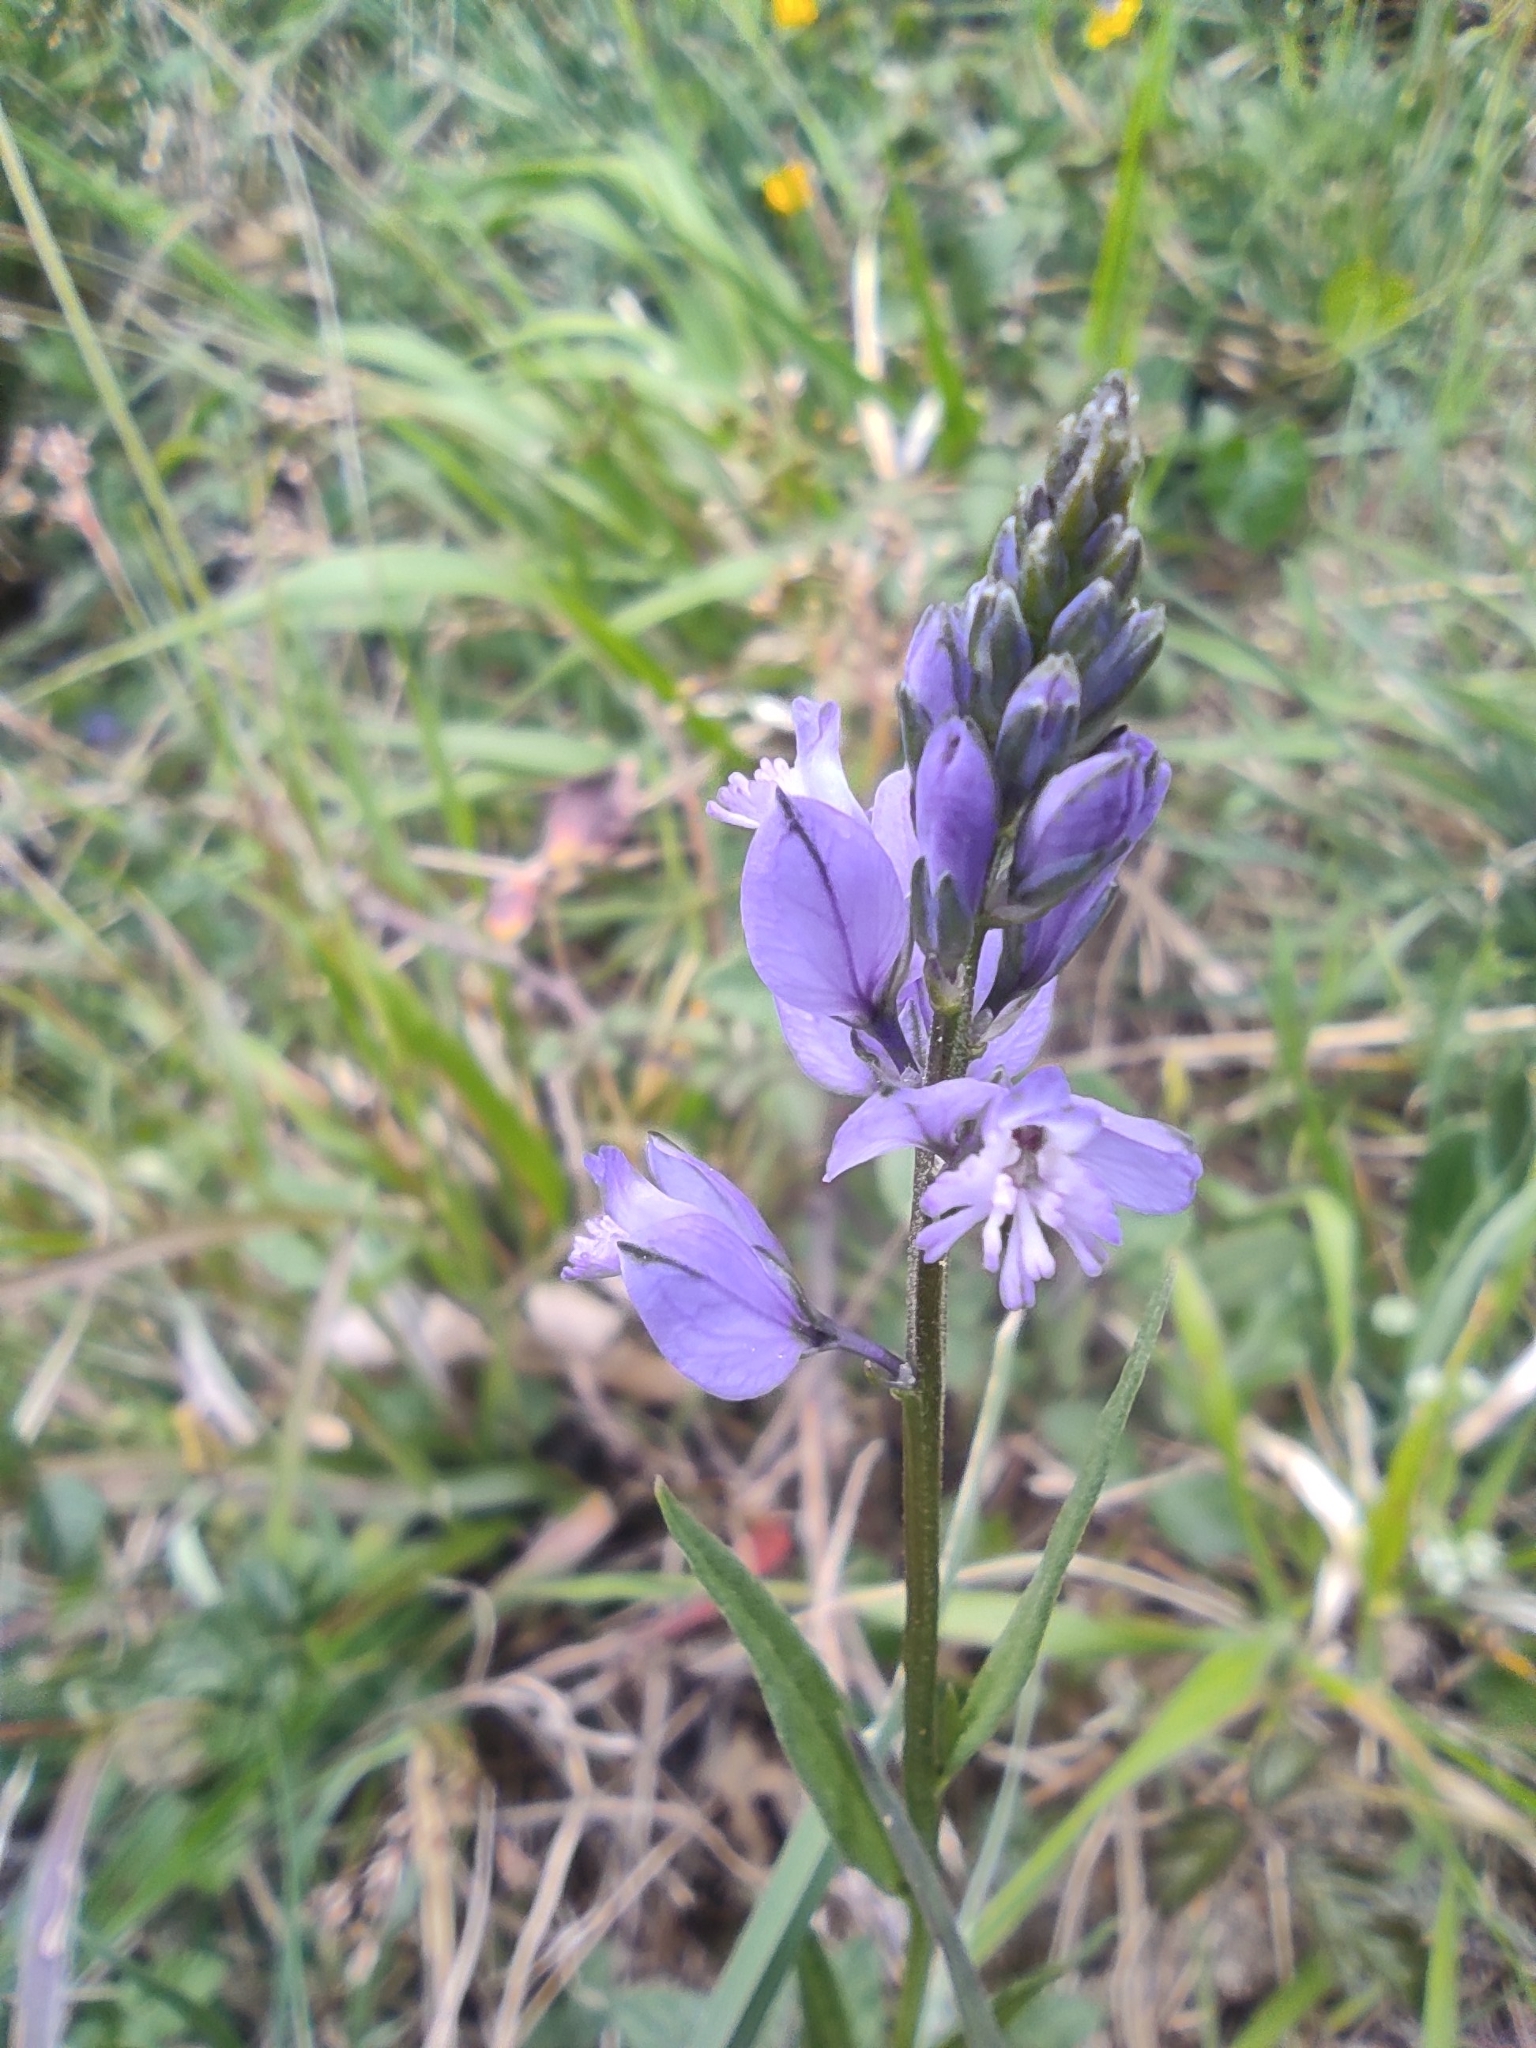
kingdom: Plantae
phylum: Tracheophyta
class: Magnoliopsida
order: Fabales
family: Polygalaceae
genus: Polygala
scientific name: Polygala vulgaris
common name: Common milkwort
